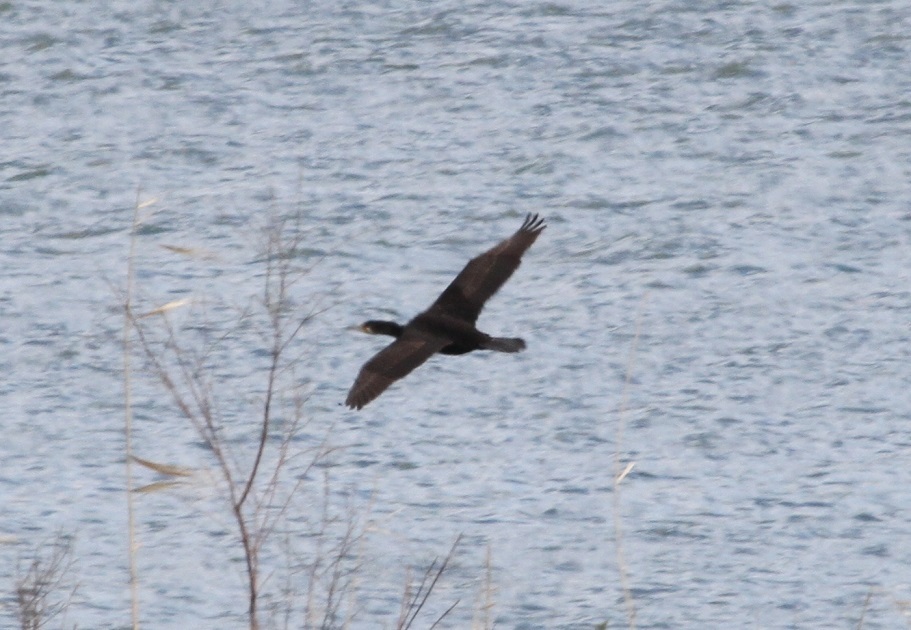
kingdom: Animalia
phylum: Chordata
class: Aves
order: Suliformes
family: Phalacrocoracidae
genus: Phalacrocorax
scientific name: Phalacrocorax carbo
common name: Great cormorant
